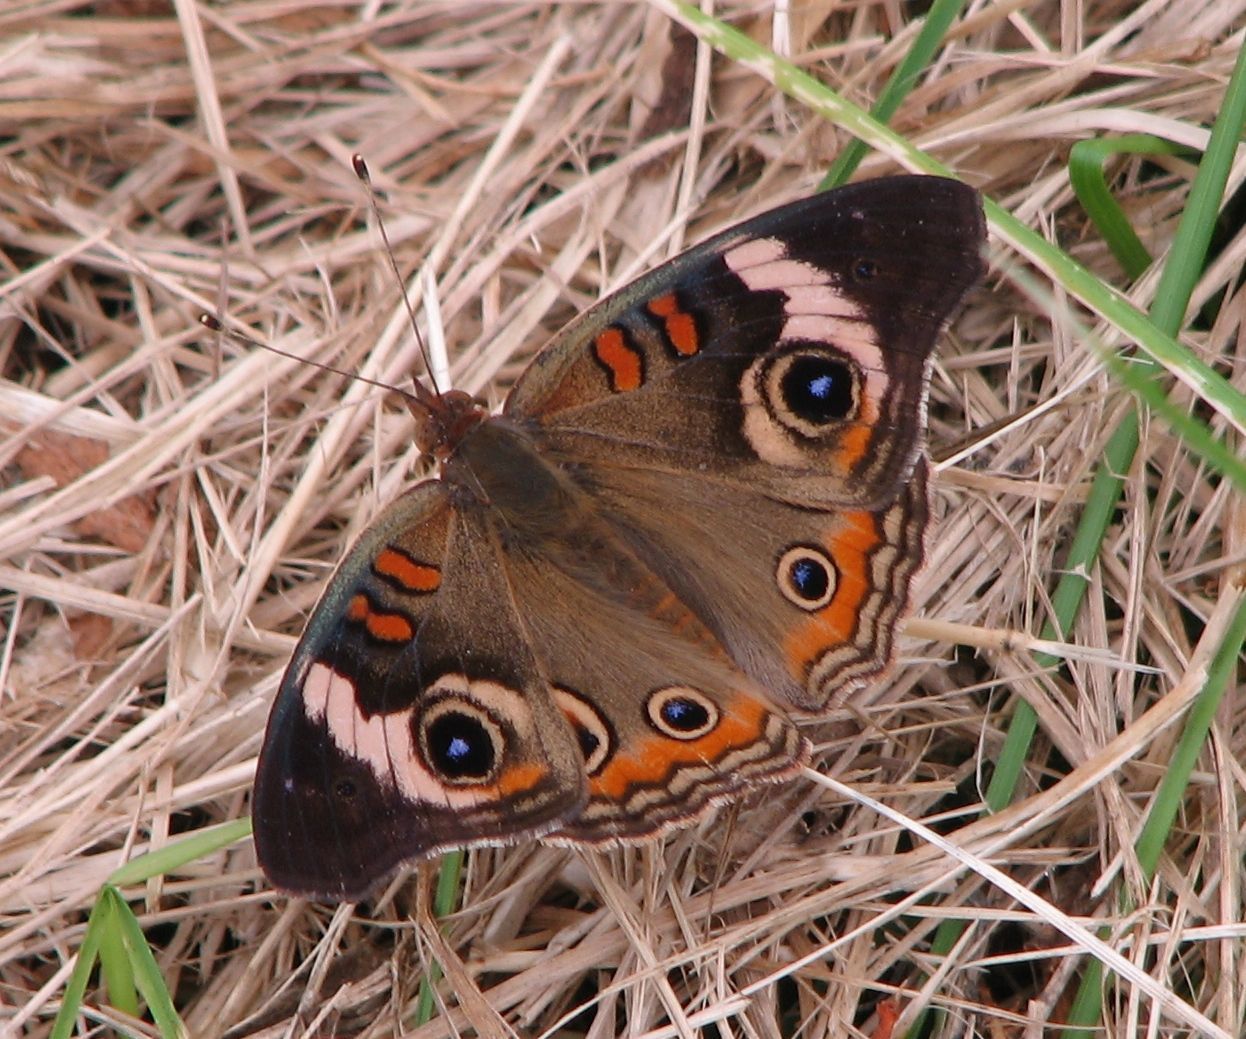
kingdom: Animalia
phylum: Arthropoda
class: Insecta
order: Lepidoptera
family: Nymphalidae
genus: Junonia
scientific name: Junonia coenia
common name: Common buckeye
